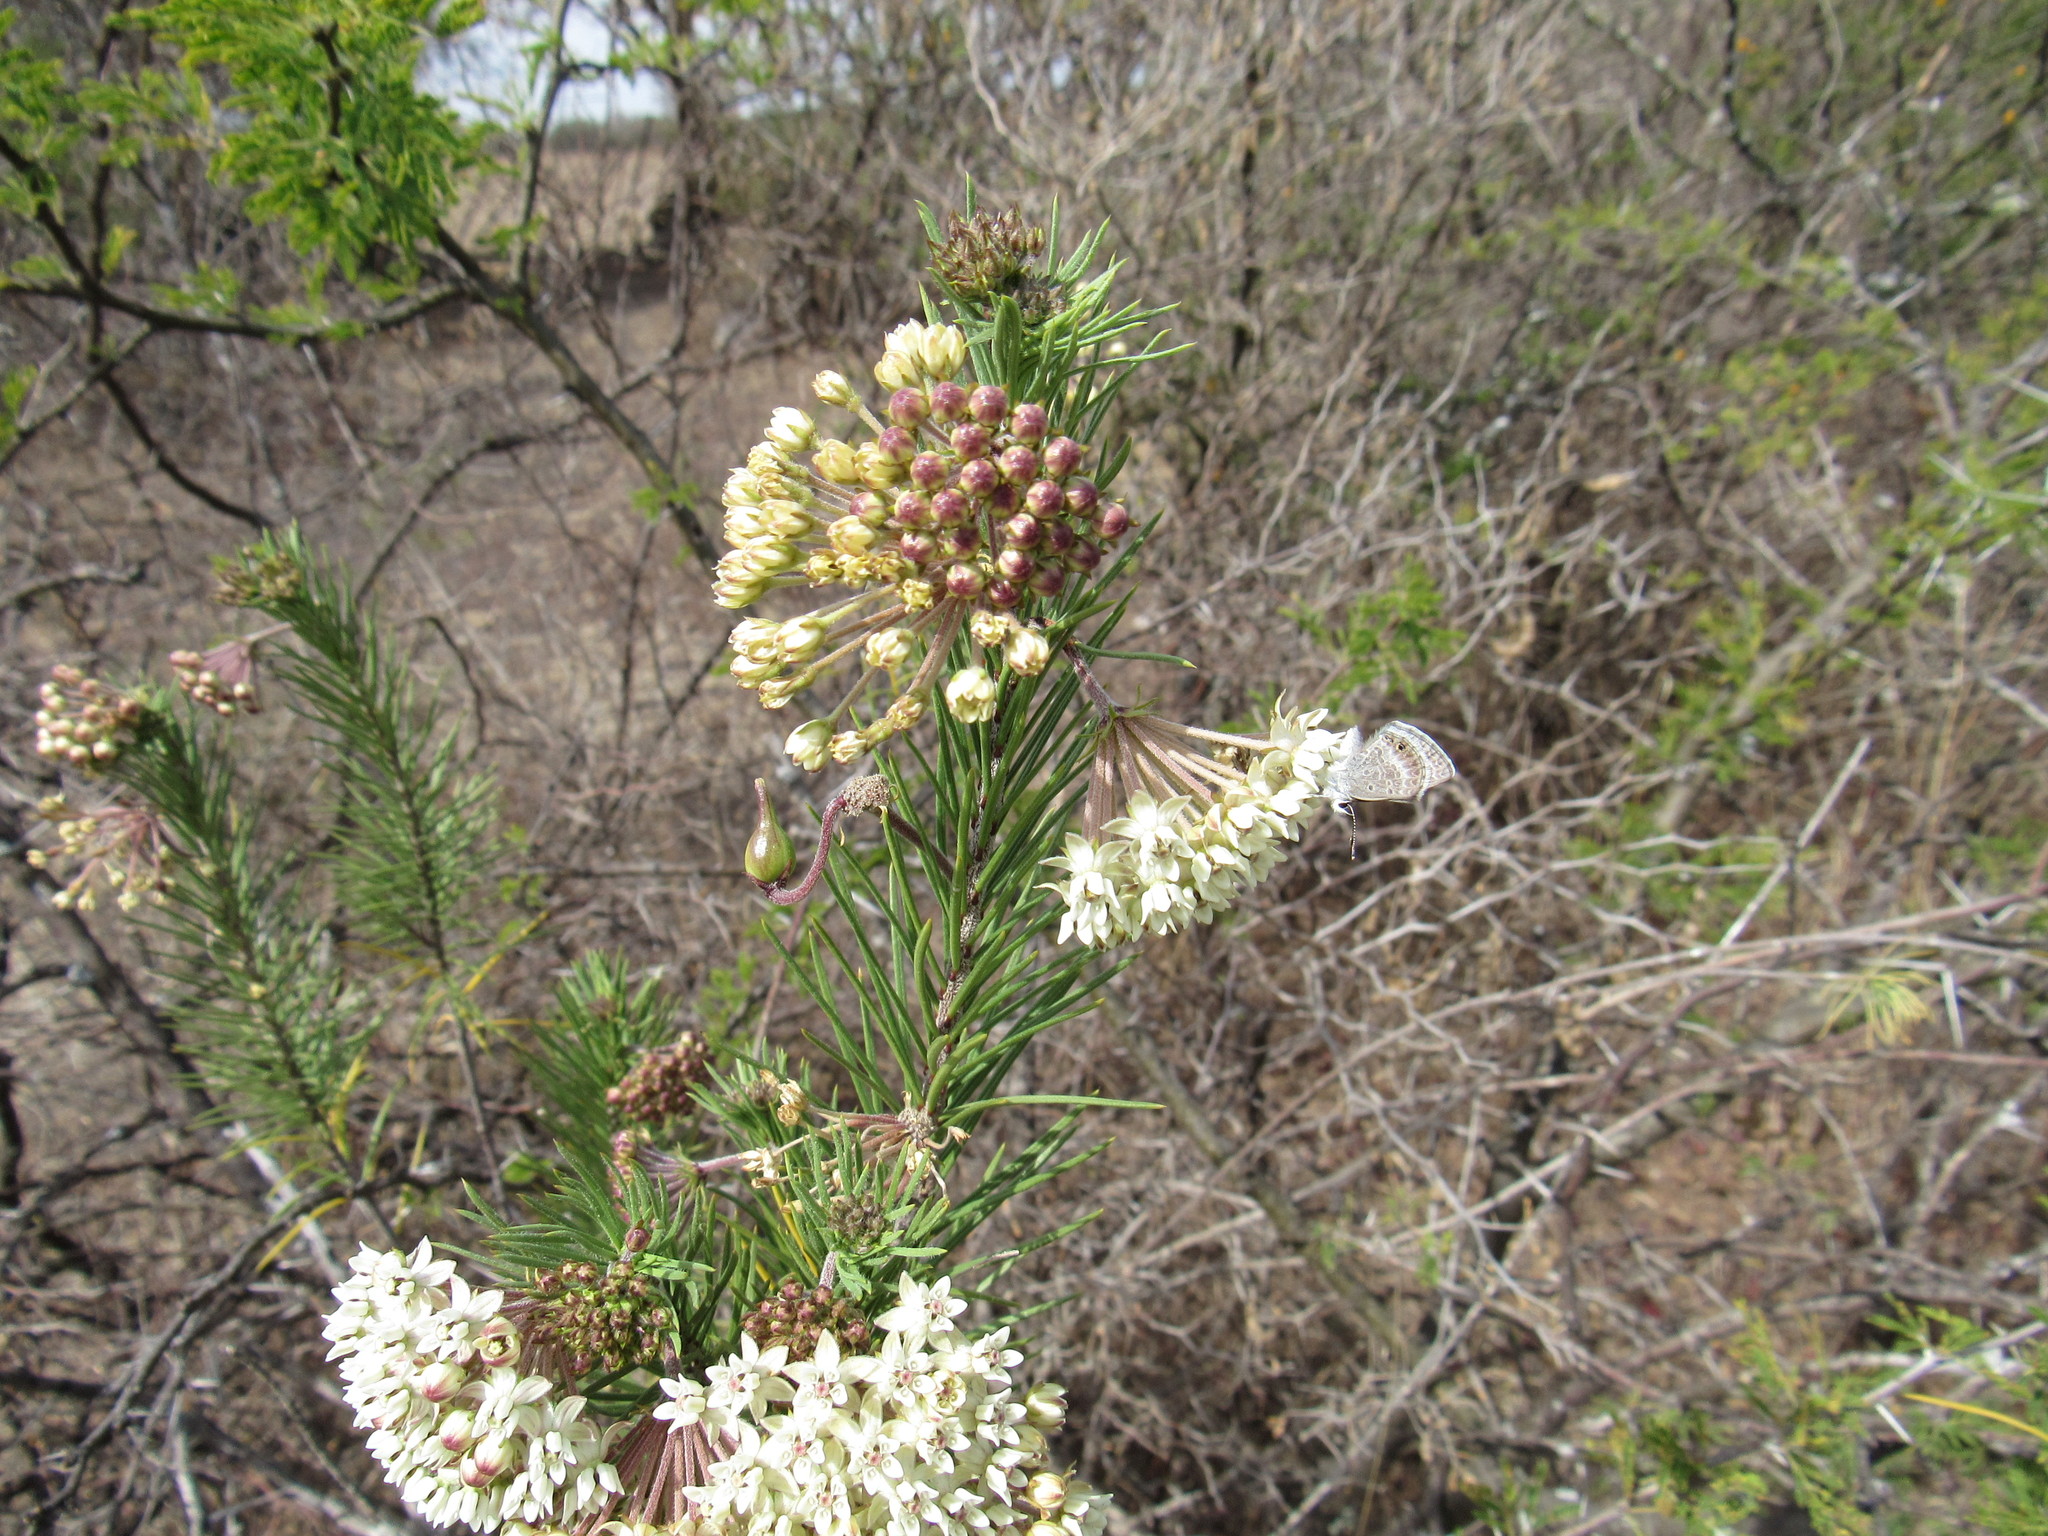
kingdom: Plantae
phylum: Tracheophyta
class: Magnoliopsida
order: Gentianales
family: Apocynaceae
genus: Asclepias
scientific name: Asclepias linaria
